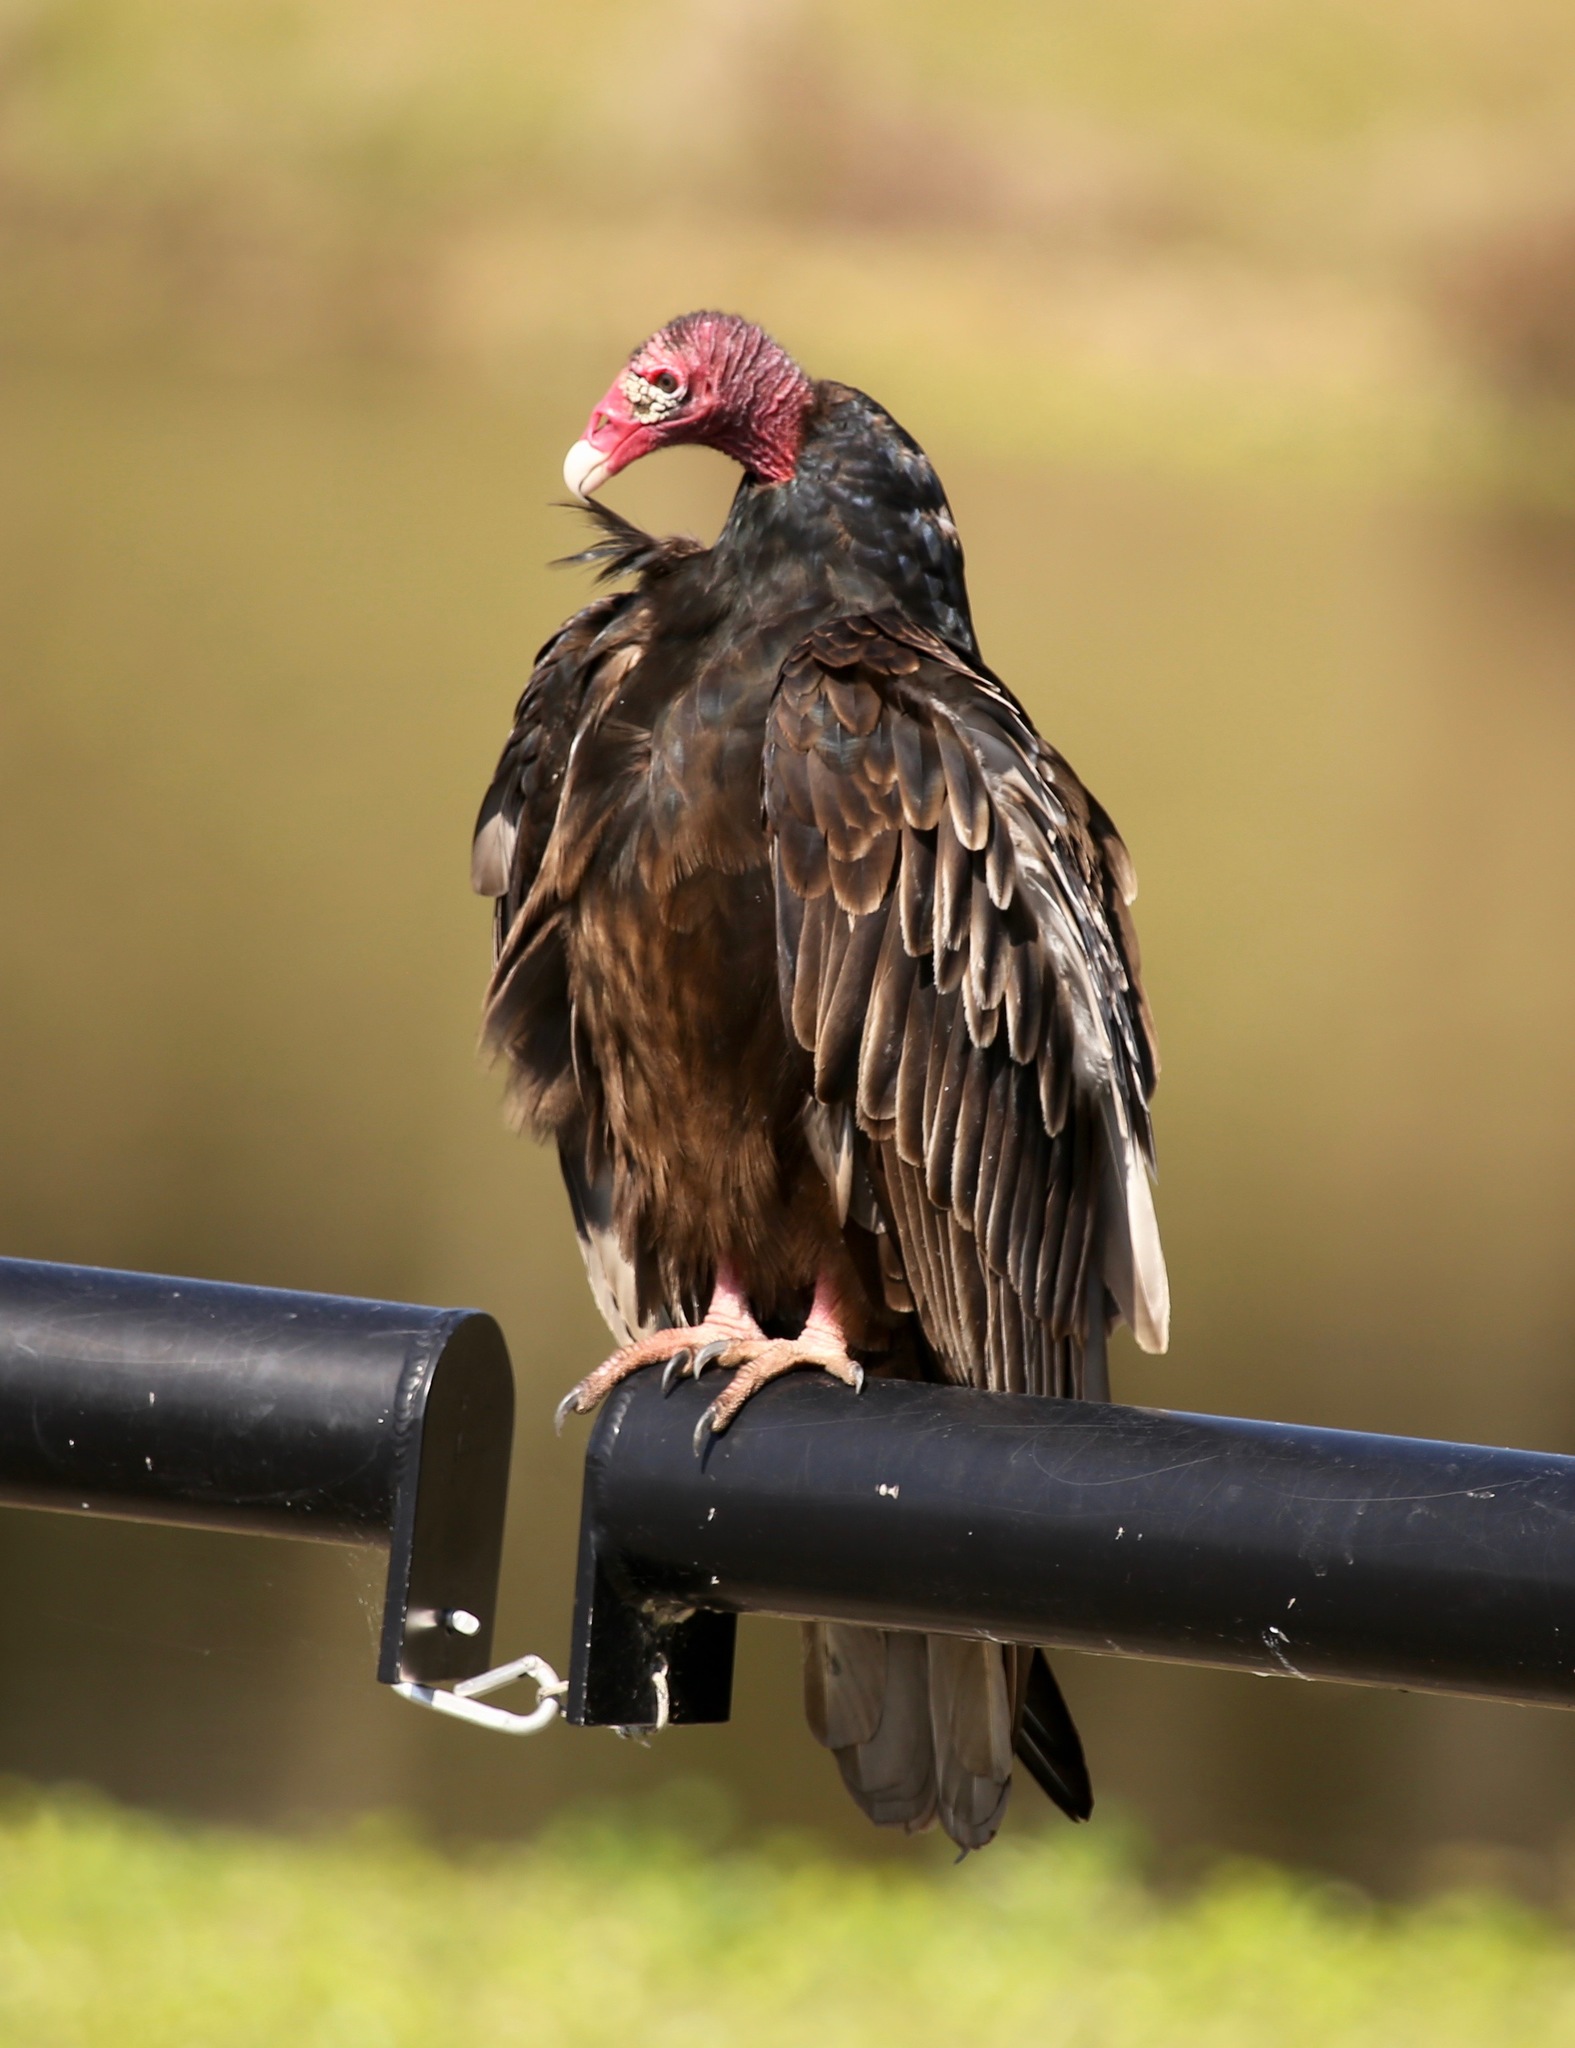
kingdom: Animalia
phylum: Chordata
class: Aves
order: Accipitriformes
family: Cathartidae
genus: Cathartes
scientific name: Cathartes aura
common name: Turkey vulture
